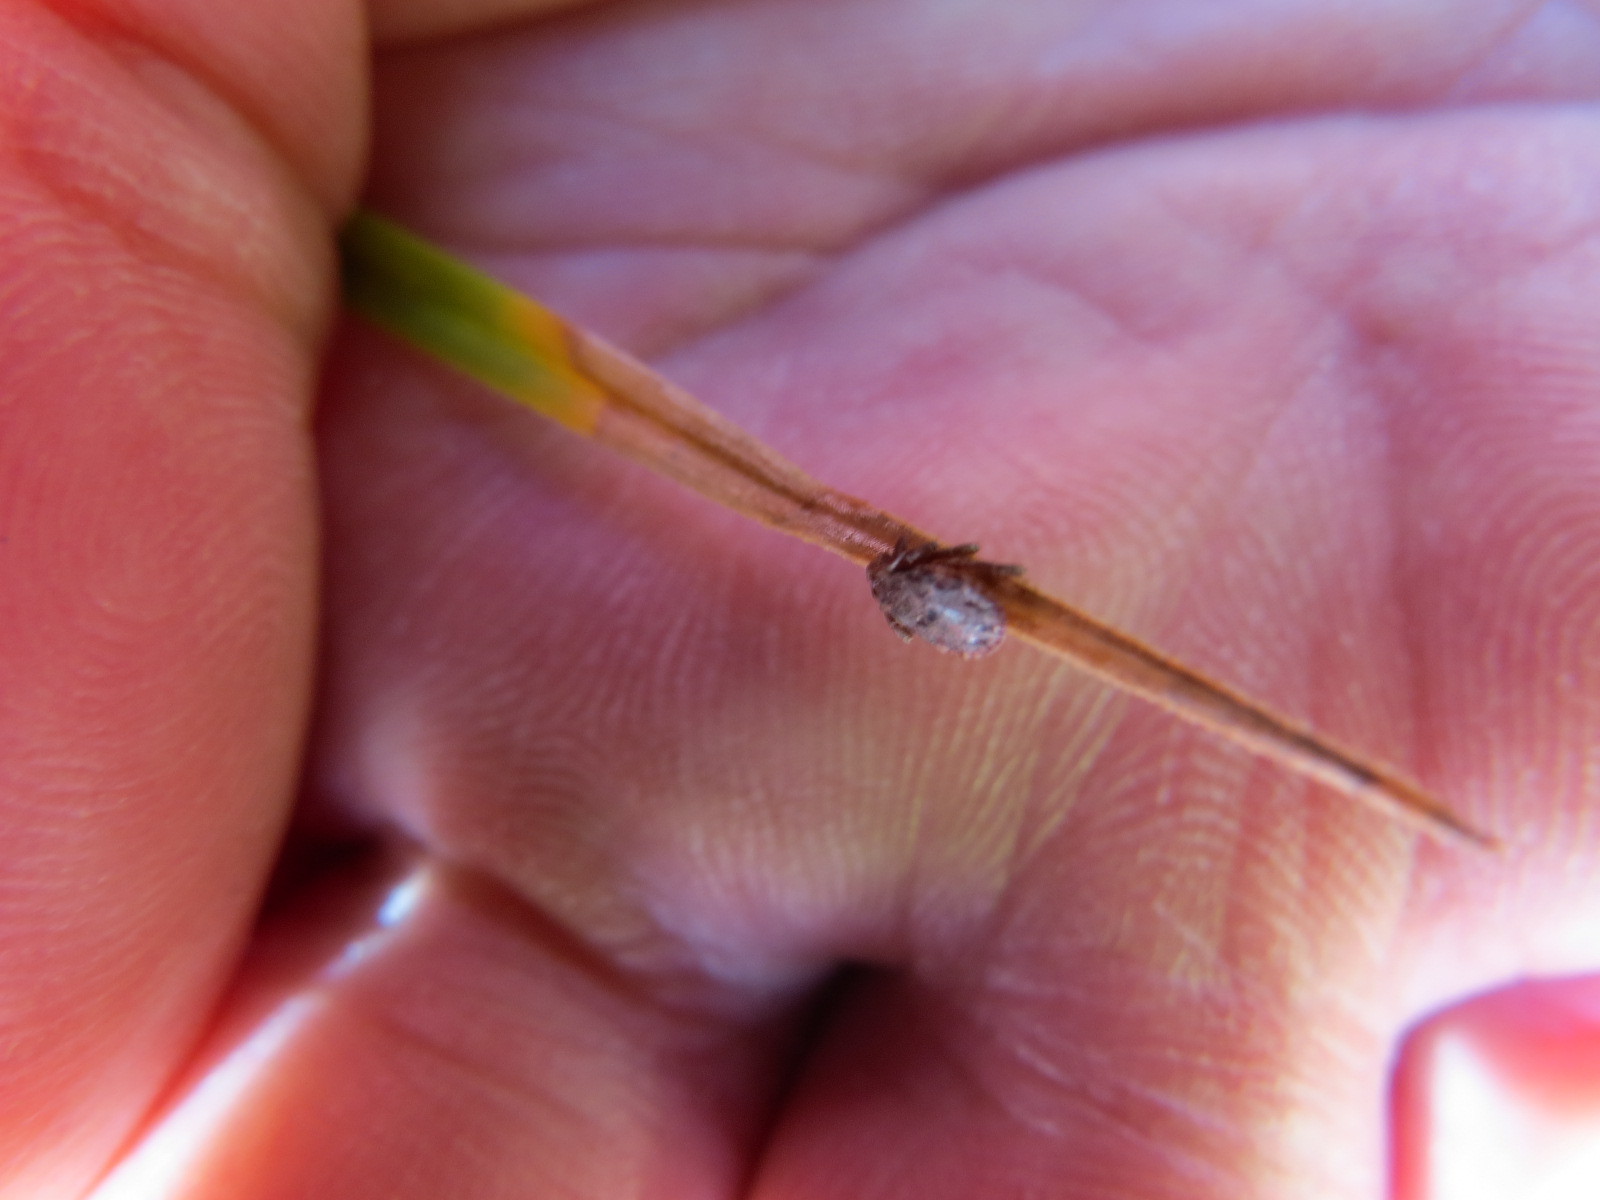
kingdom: Animalia
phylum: Arthropoda
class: Arachnida
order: Ixodida
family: Ixodidae
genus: Dermacentor
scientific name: Dermacentor occidentalis
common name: Net tick
